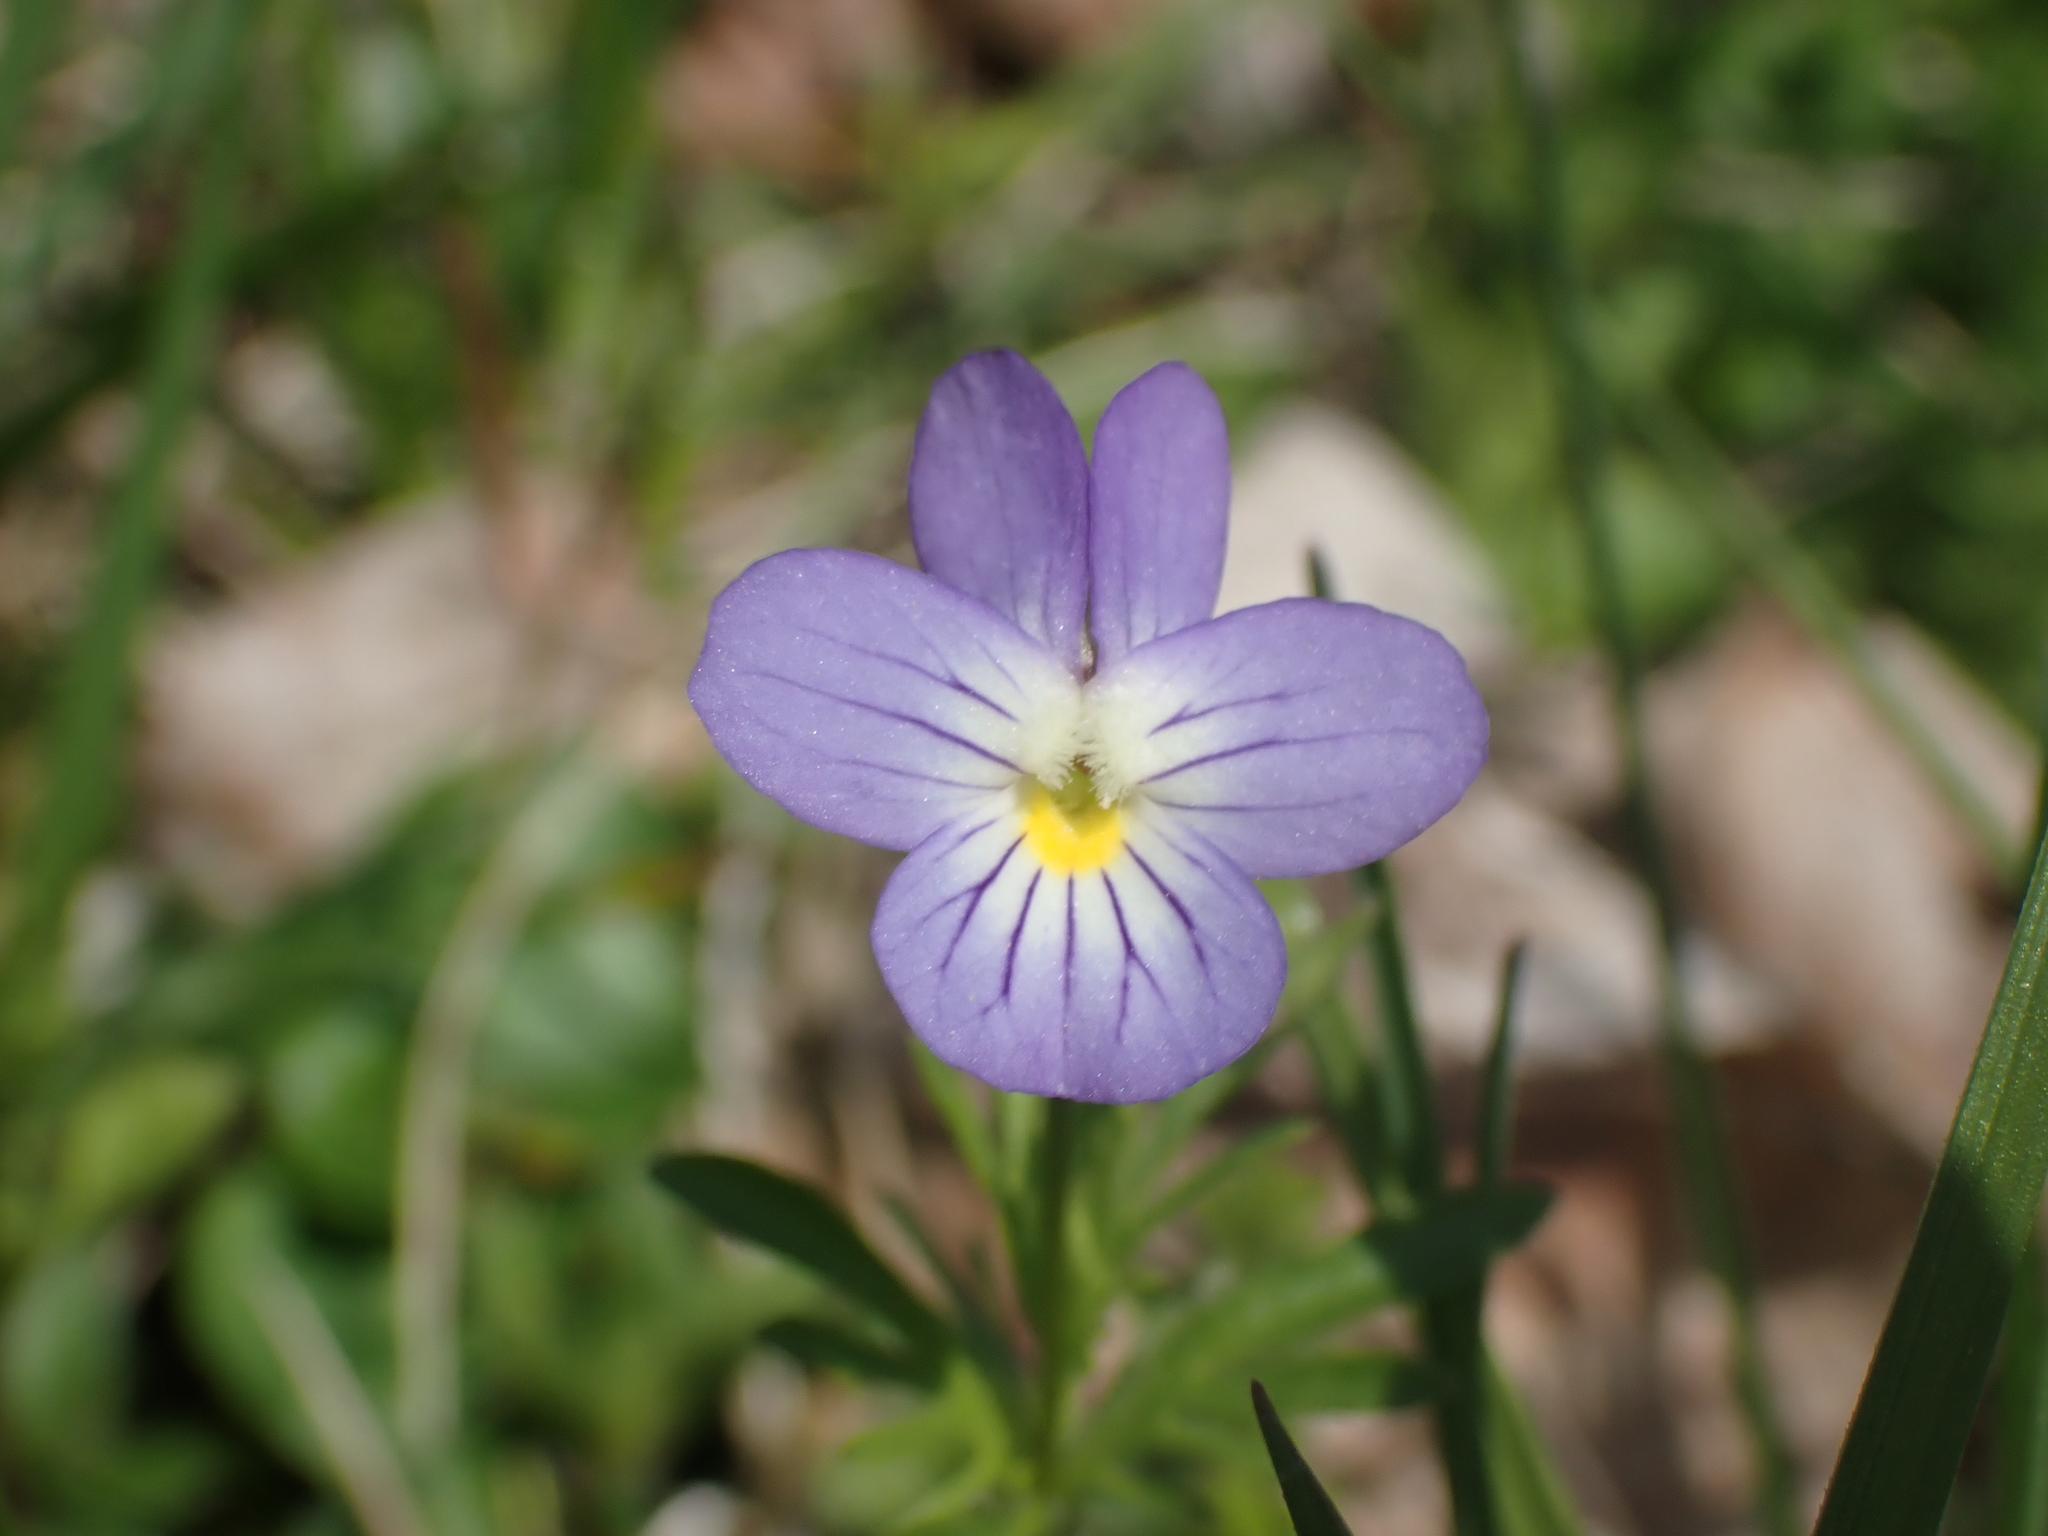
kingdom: Plantae
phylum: Tracheophyta
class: Magnoliopsida
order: Malpighiales
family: Violaceae
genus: Viola
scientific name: Viola rafinesquei
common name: American field pansy
